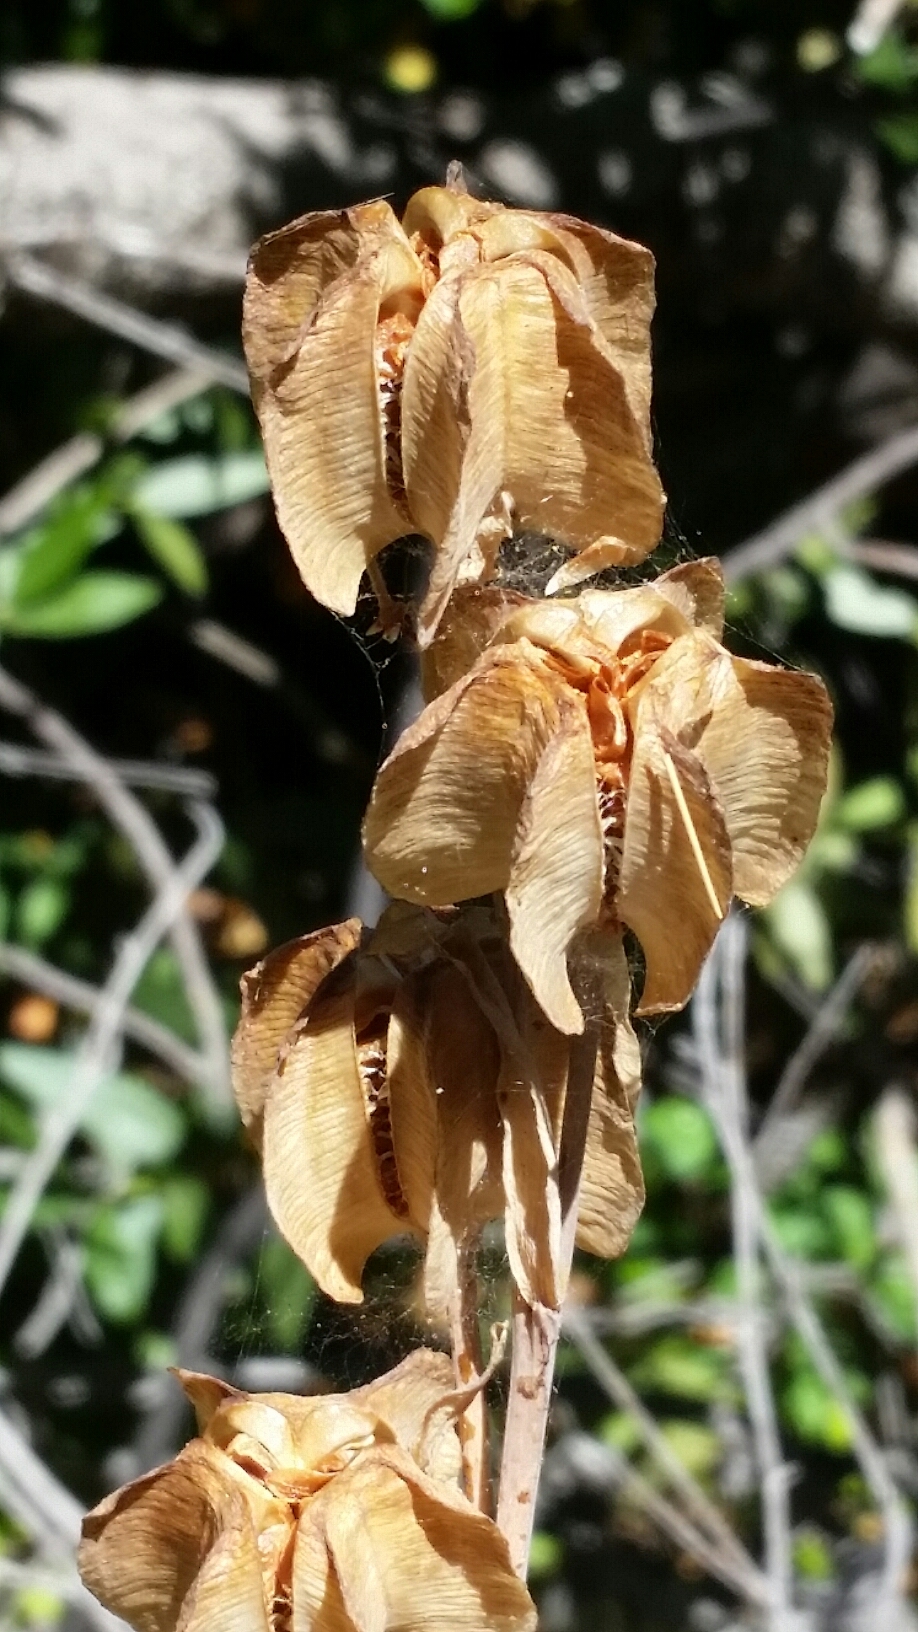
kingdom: Plantae
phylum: Tracheophyta
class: Liliopsida
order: Liliales
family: Liliaceae
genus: Fritillaria
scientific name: Fritillaria affinis
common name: Ojai fritillary
